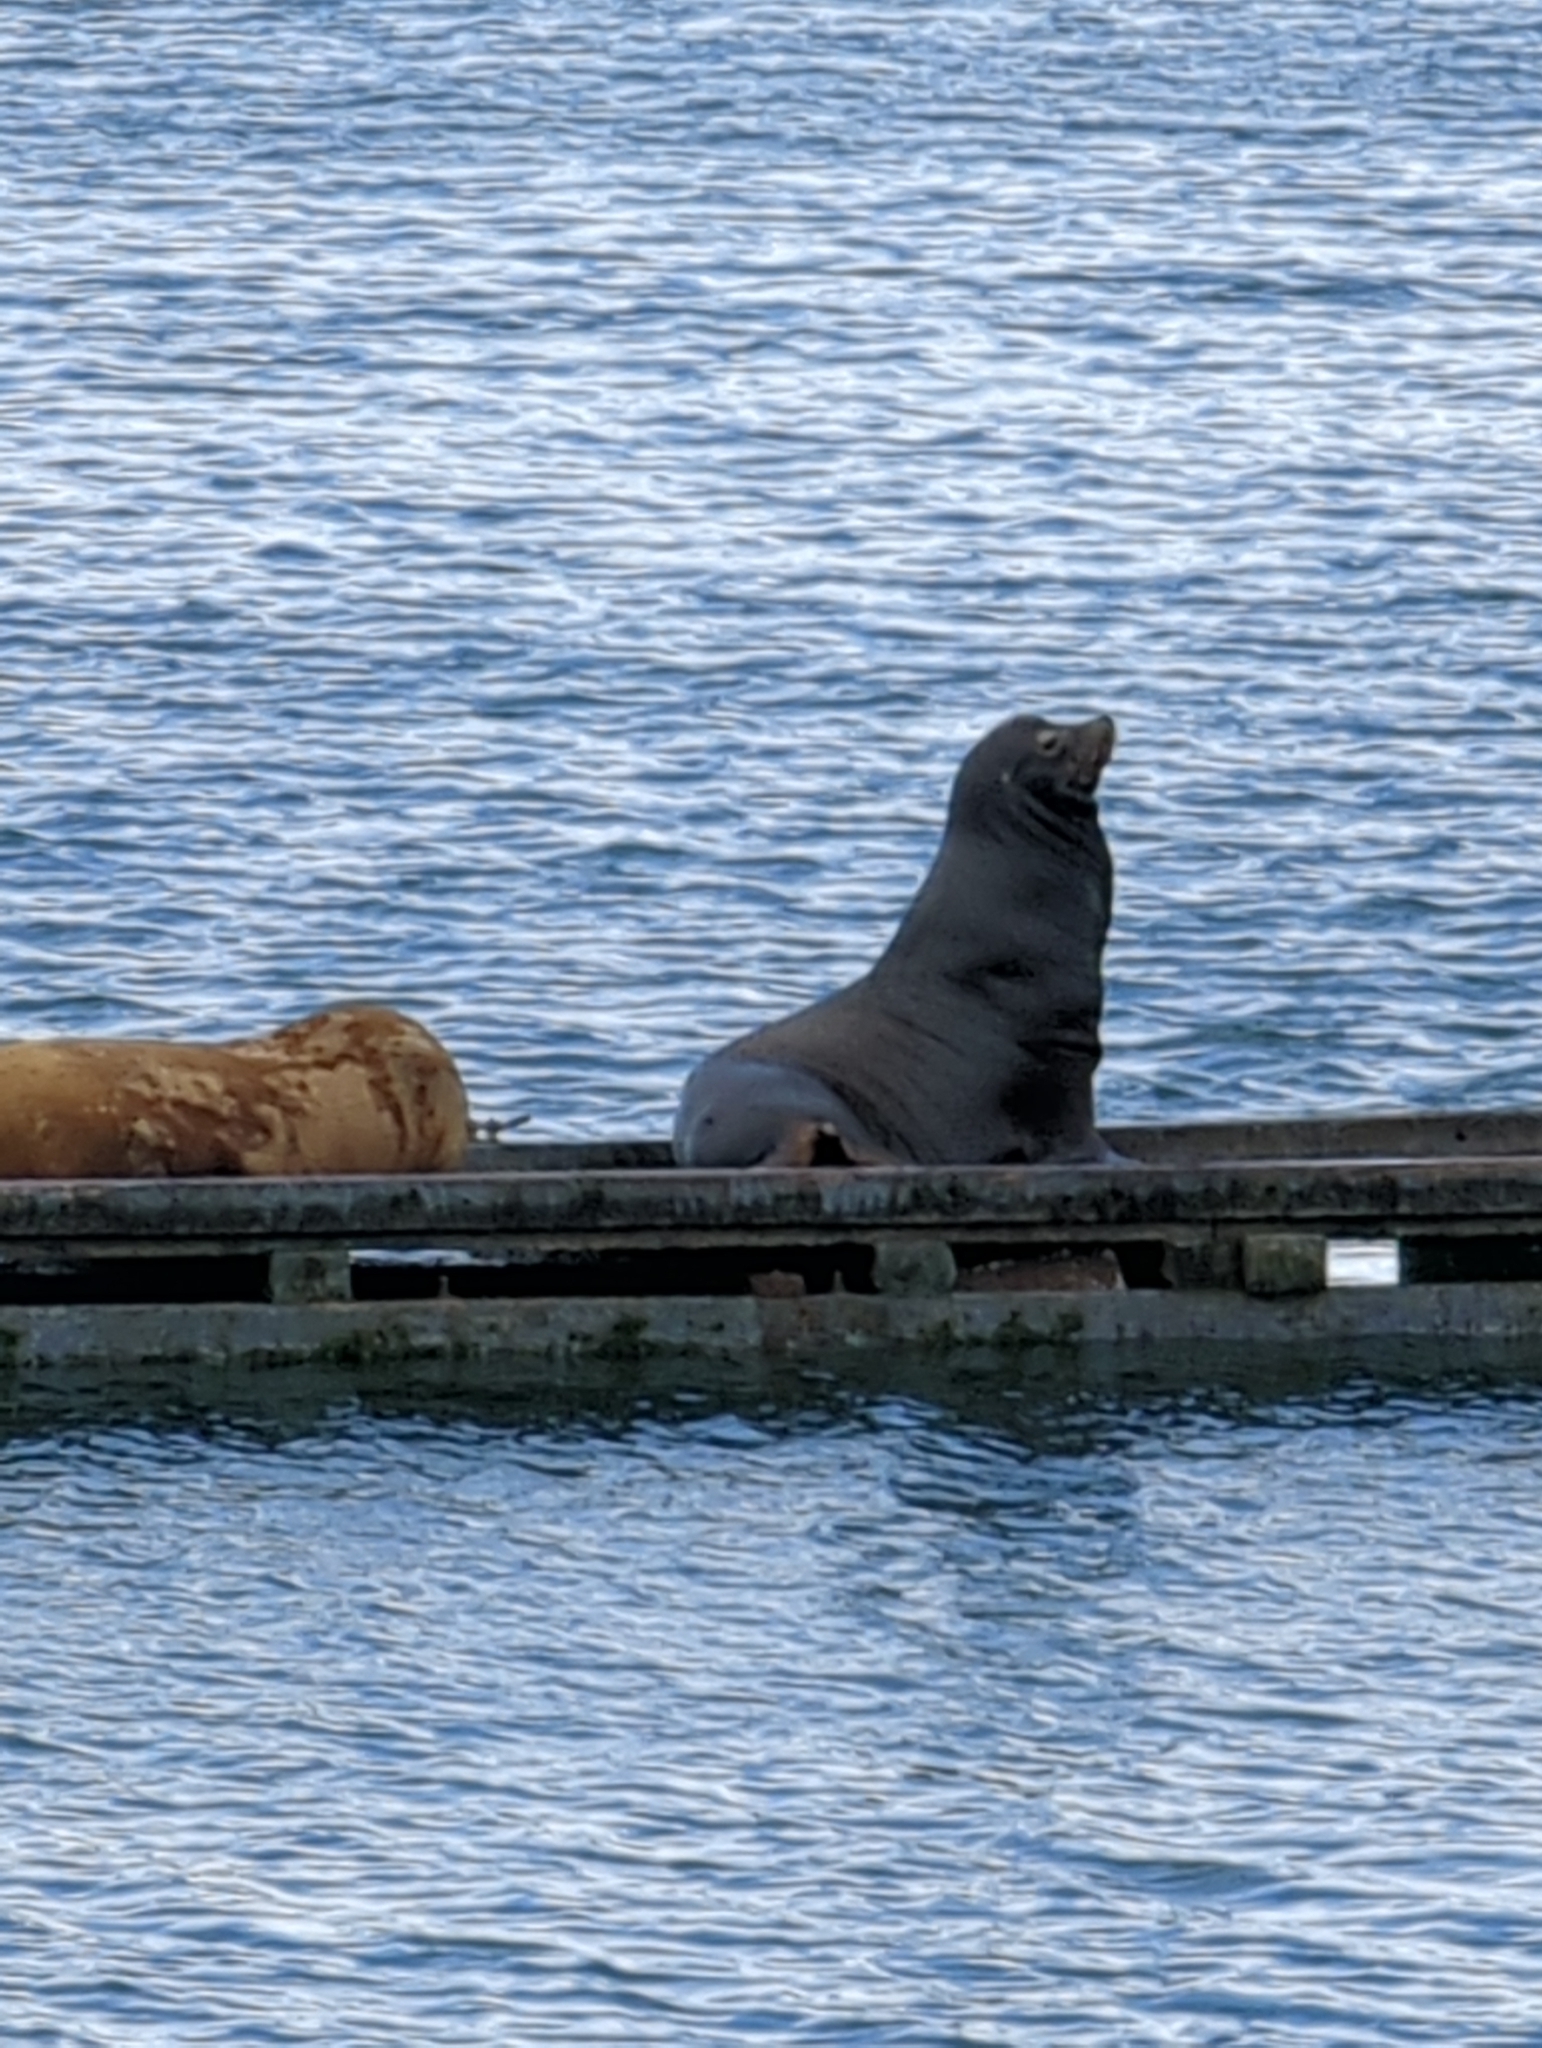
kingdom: Animalia
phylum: Chordata
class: Mammalia
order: Carnivora
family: Otariidae
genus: Zalophus
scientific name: Zalophus californianus
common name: California sea lion
